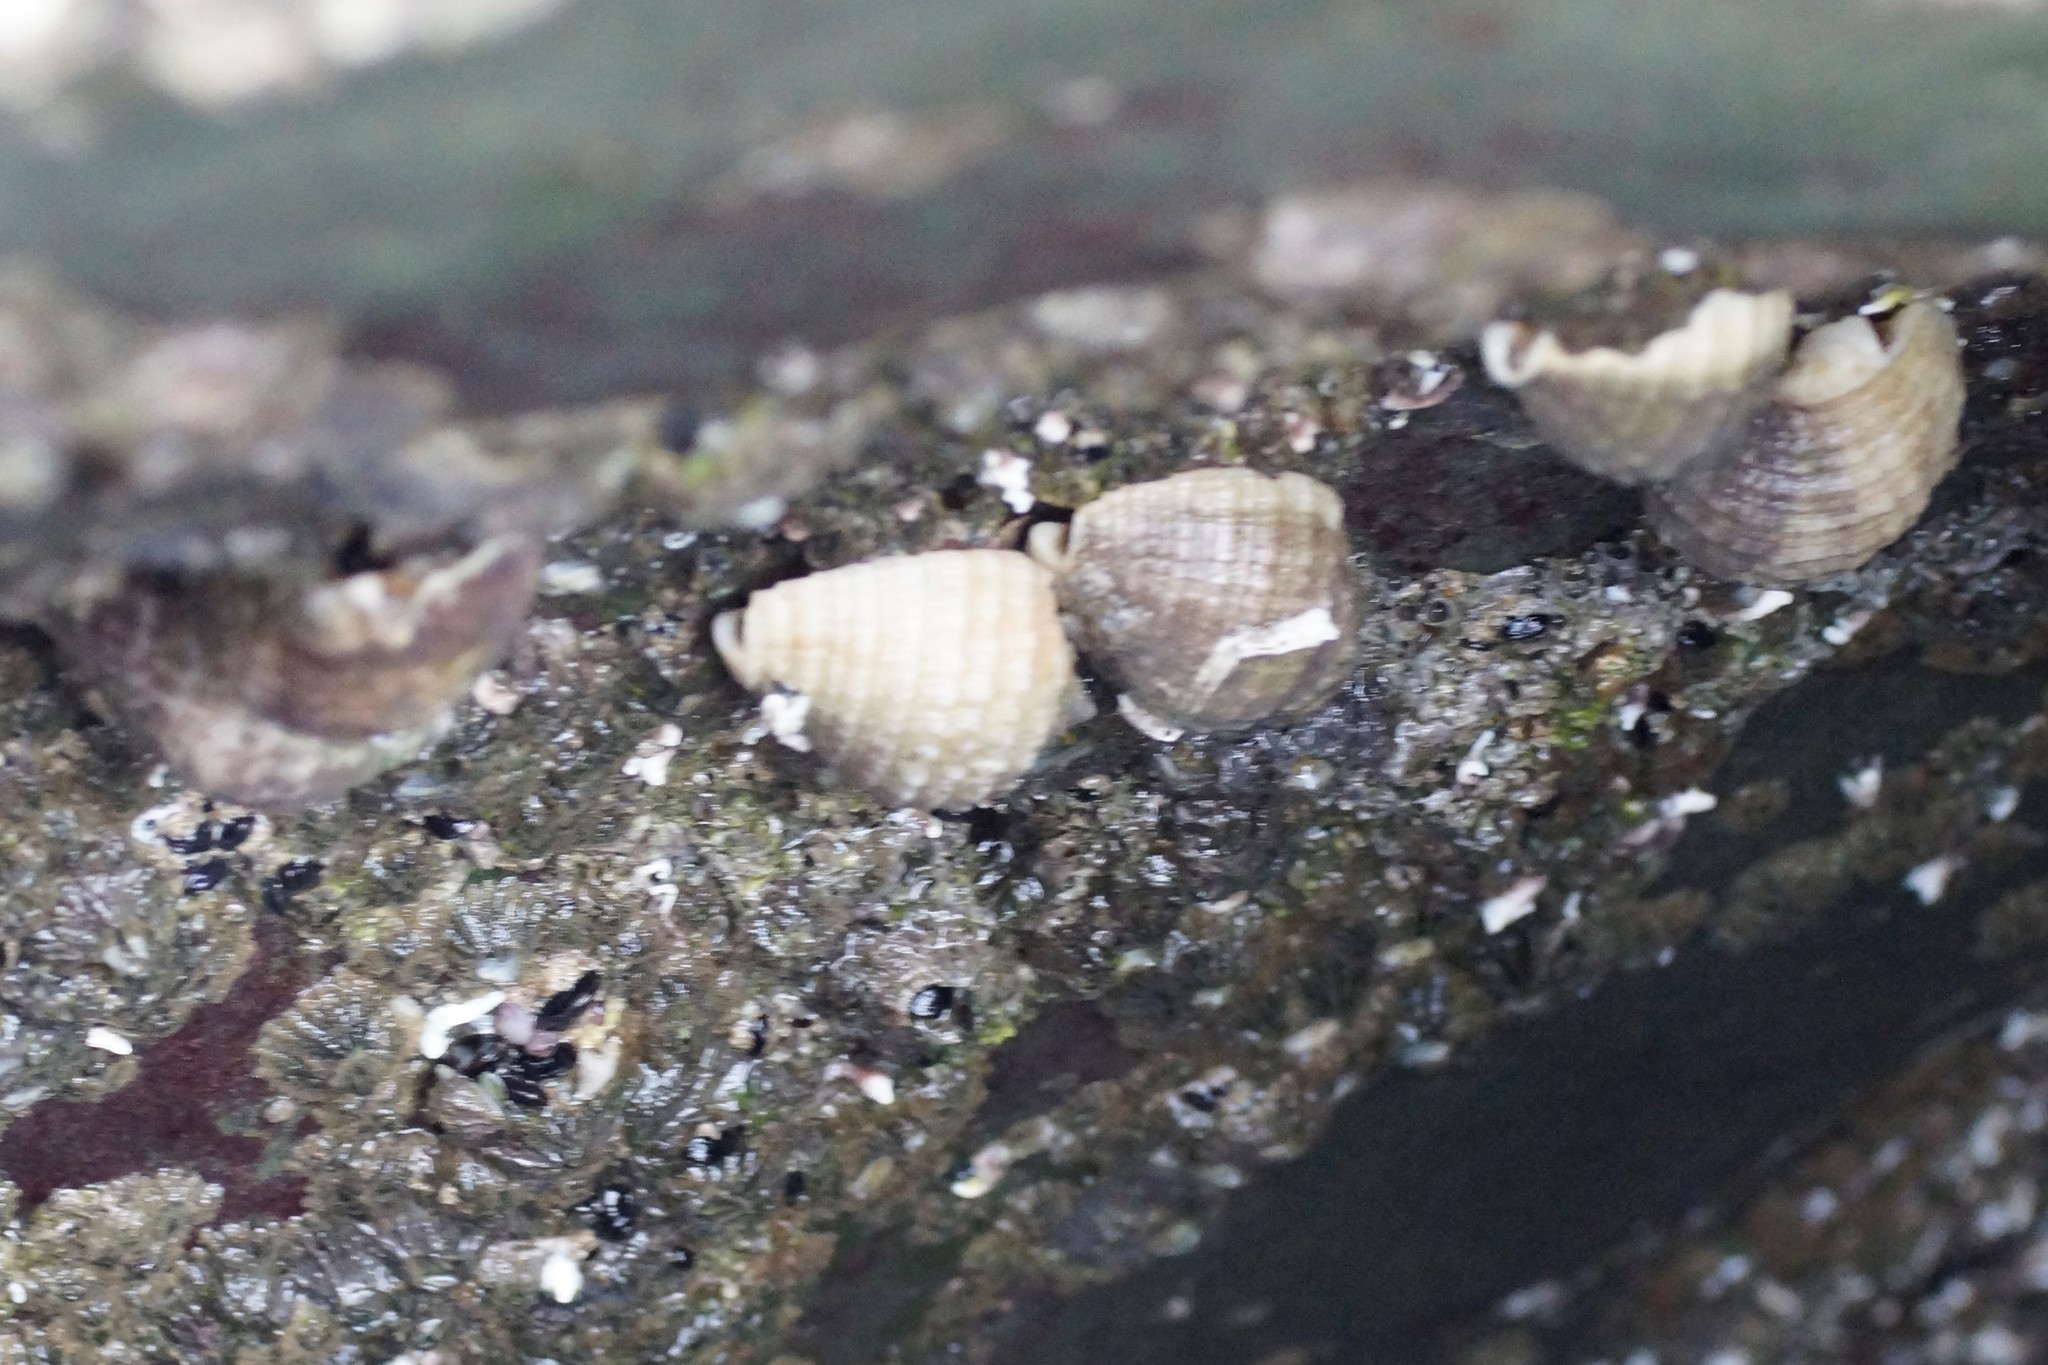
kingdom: Animalia
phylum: Mollusca
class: Gastropoda
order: Neogastropoda
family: Muricidae
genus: Dicathais
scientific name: Dicathais orbita
